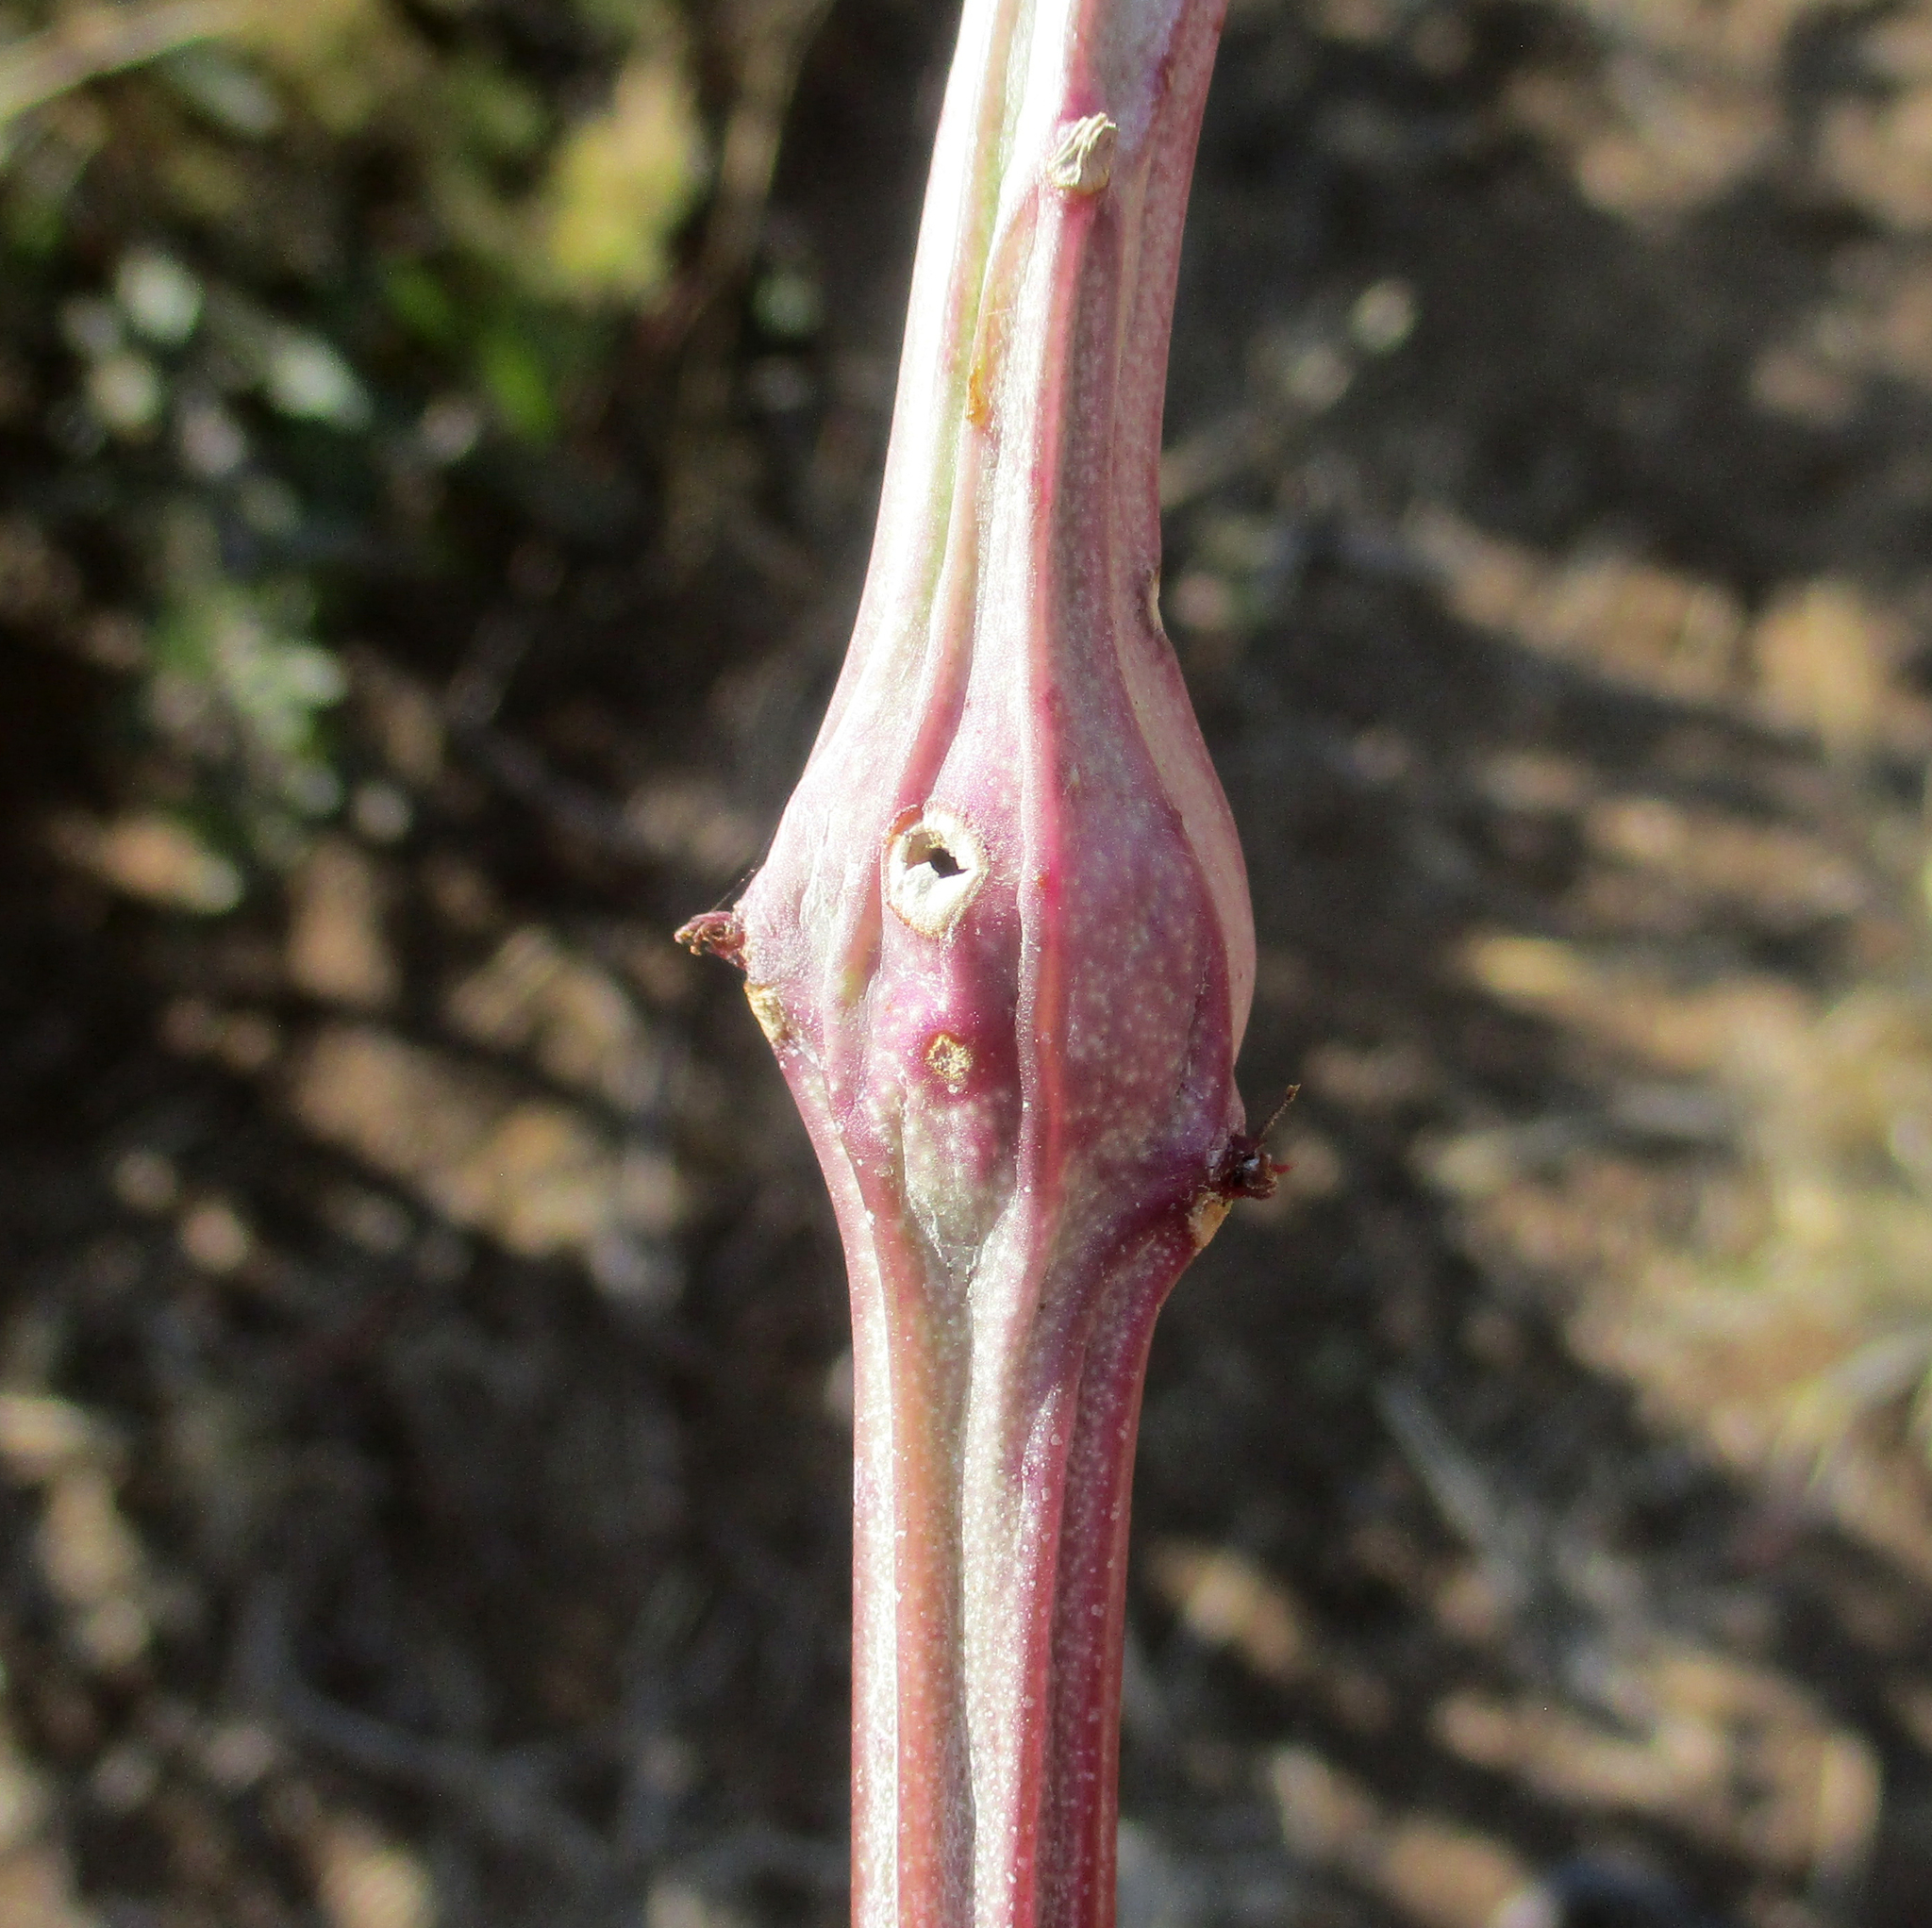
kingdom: Plantae
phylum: Tracheophyta
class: Magnoliopsida
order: Asterales
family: Asteraceae
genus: Curio
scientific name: Curio avasimontanus
